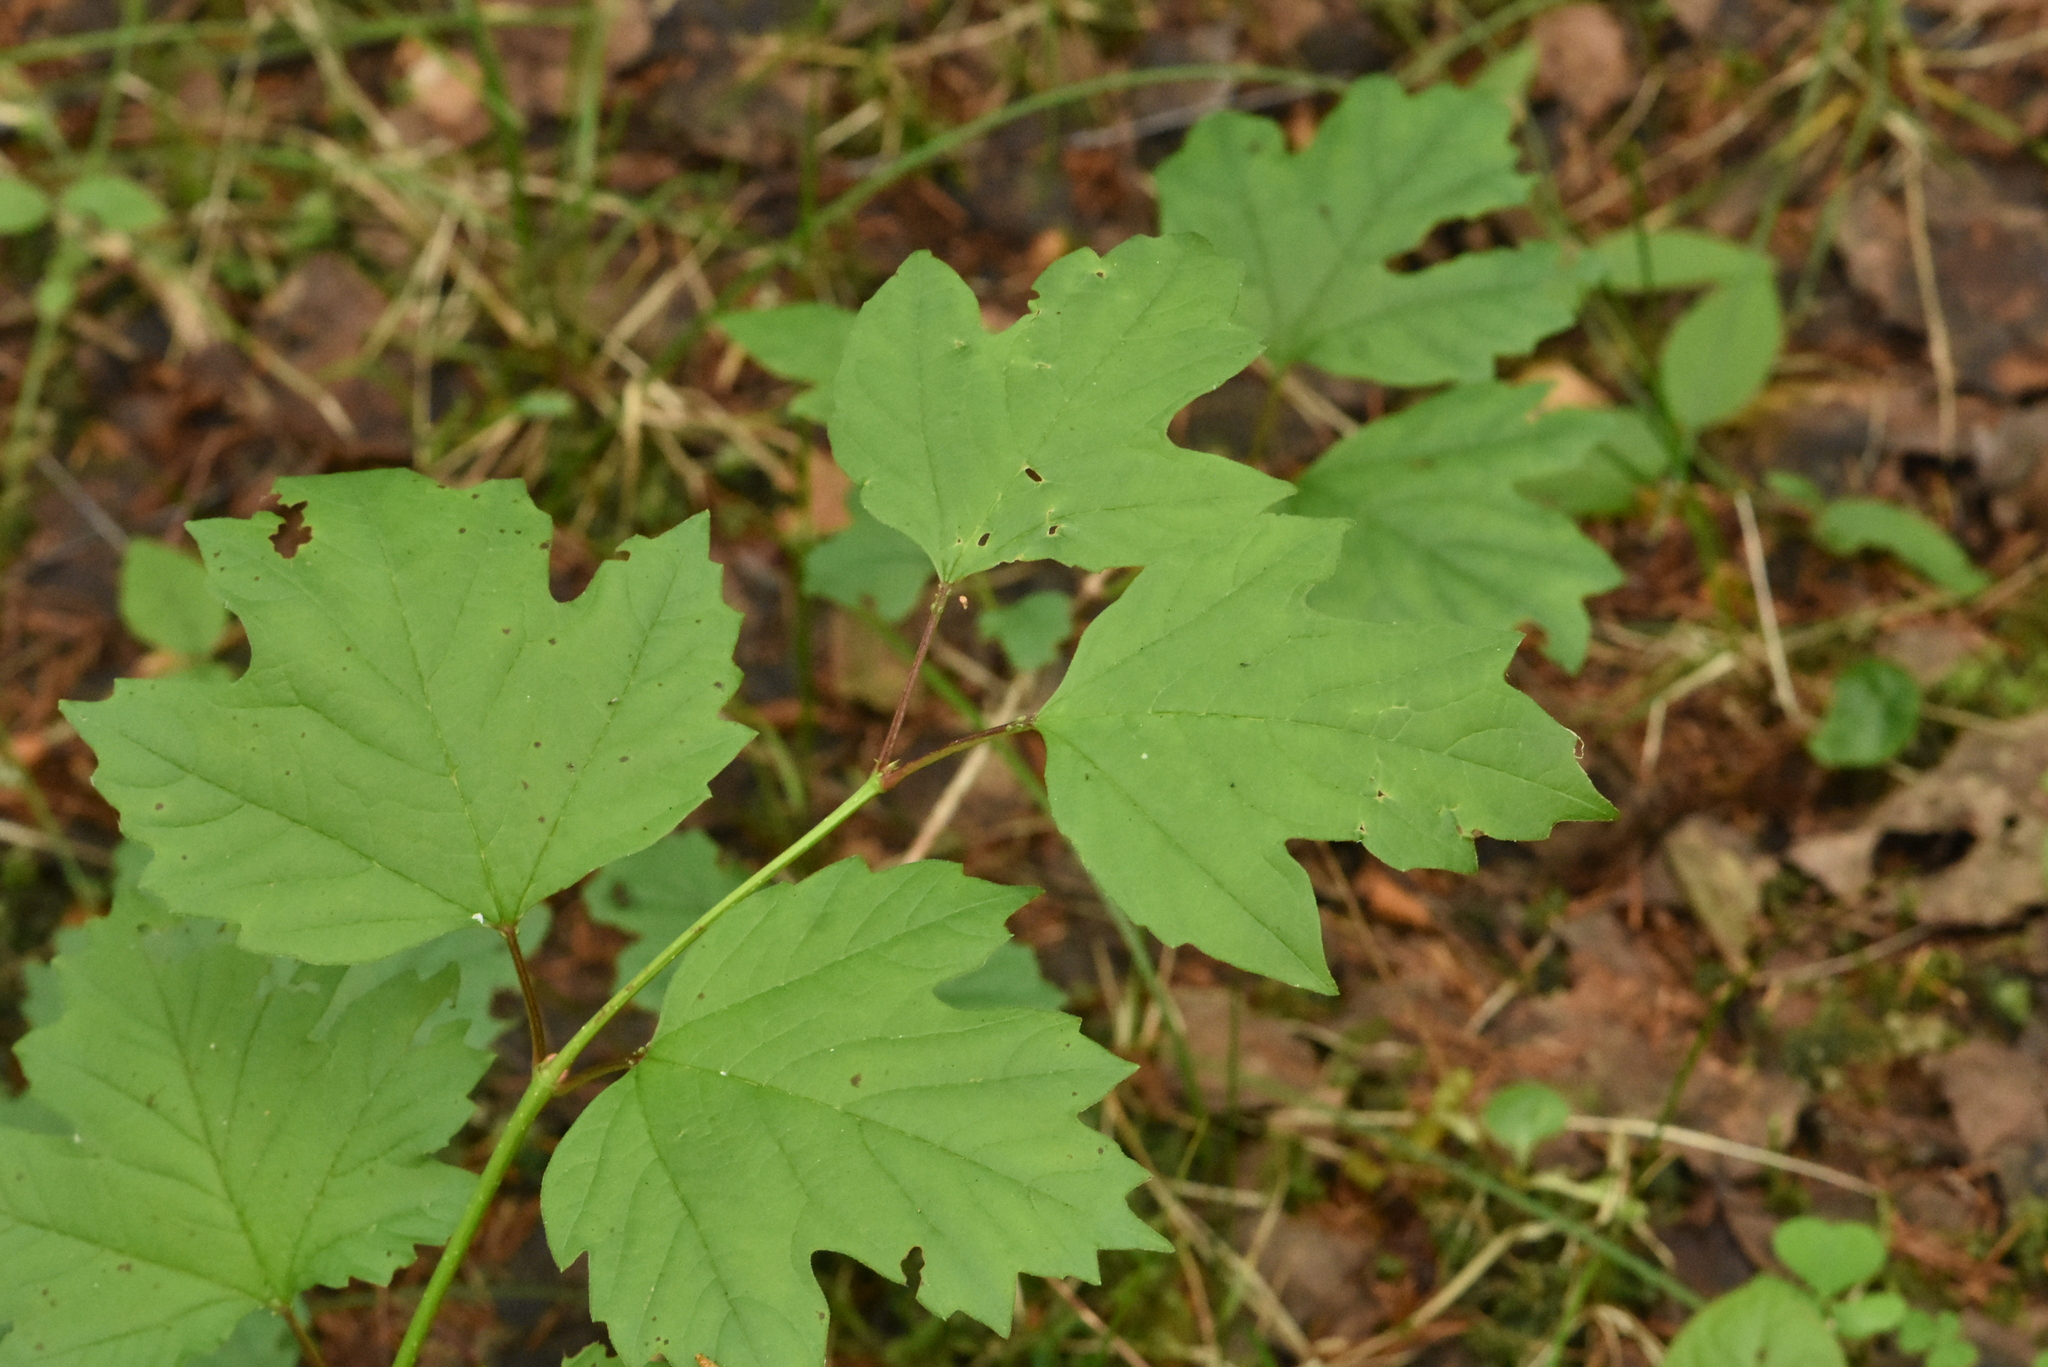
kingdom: Plantae
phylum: Tracheophyta
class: Magnoliopsida
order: Dipsacales
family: Viburnaceae
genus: Viburnum
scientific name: Viburnum opulus
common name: Guelder-rose
